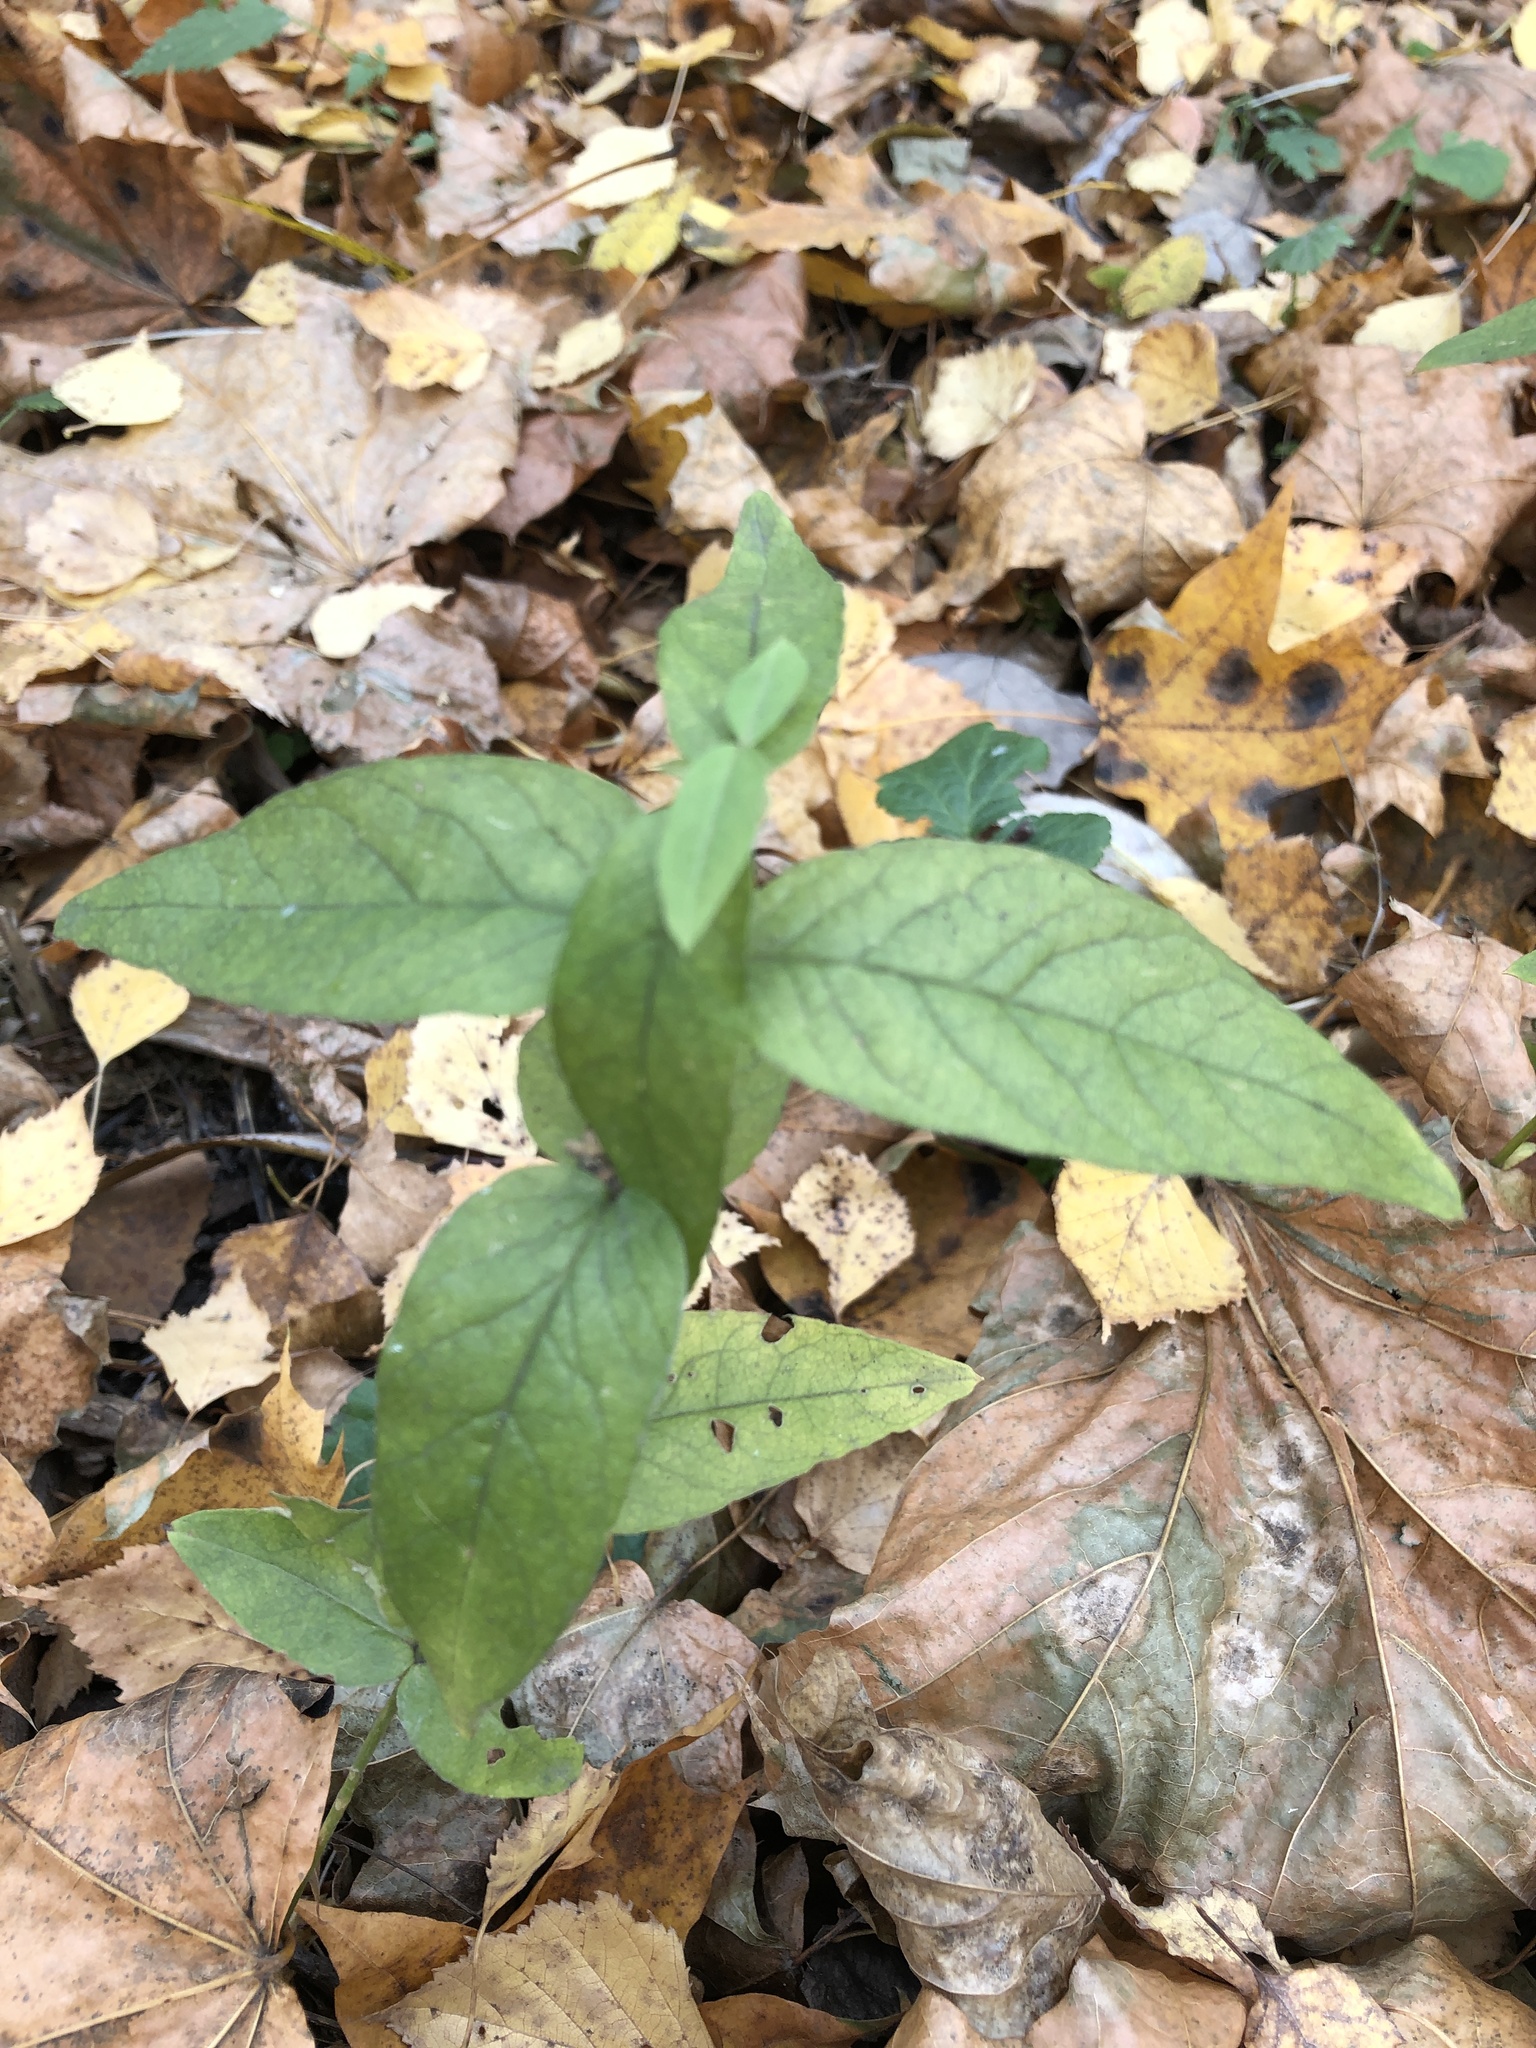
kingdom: Plantae
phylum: Tracheophyta
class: Magnoliopsida
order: Ericales
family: Primulaceae
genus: Lysimachia
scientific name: Lysimachia vulgaris
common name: Yellow loosestrife
